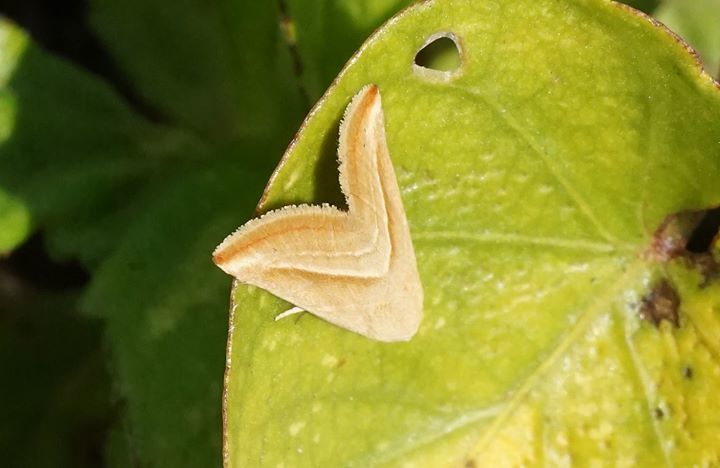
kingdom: Animalia
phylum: Arthropoda
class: Insecta
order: Lepidoptera
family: Noctuidae
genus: Eublemma
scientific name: Eublemma recta
